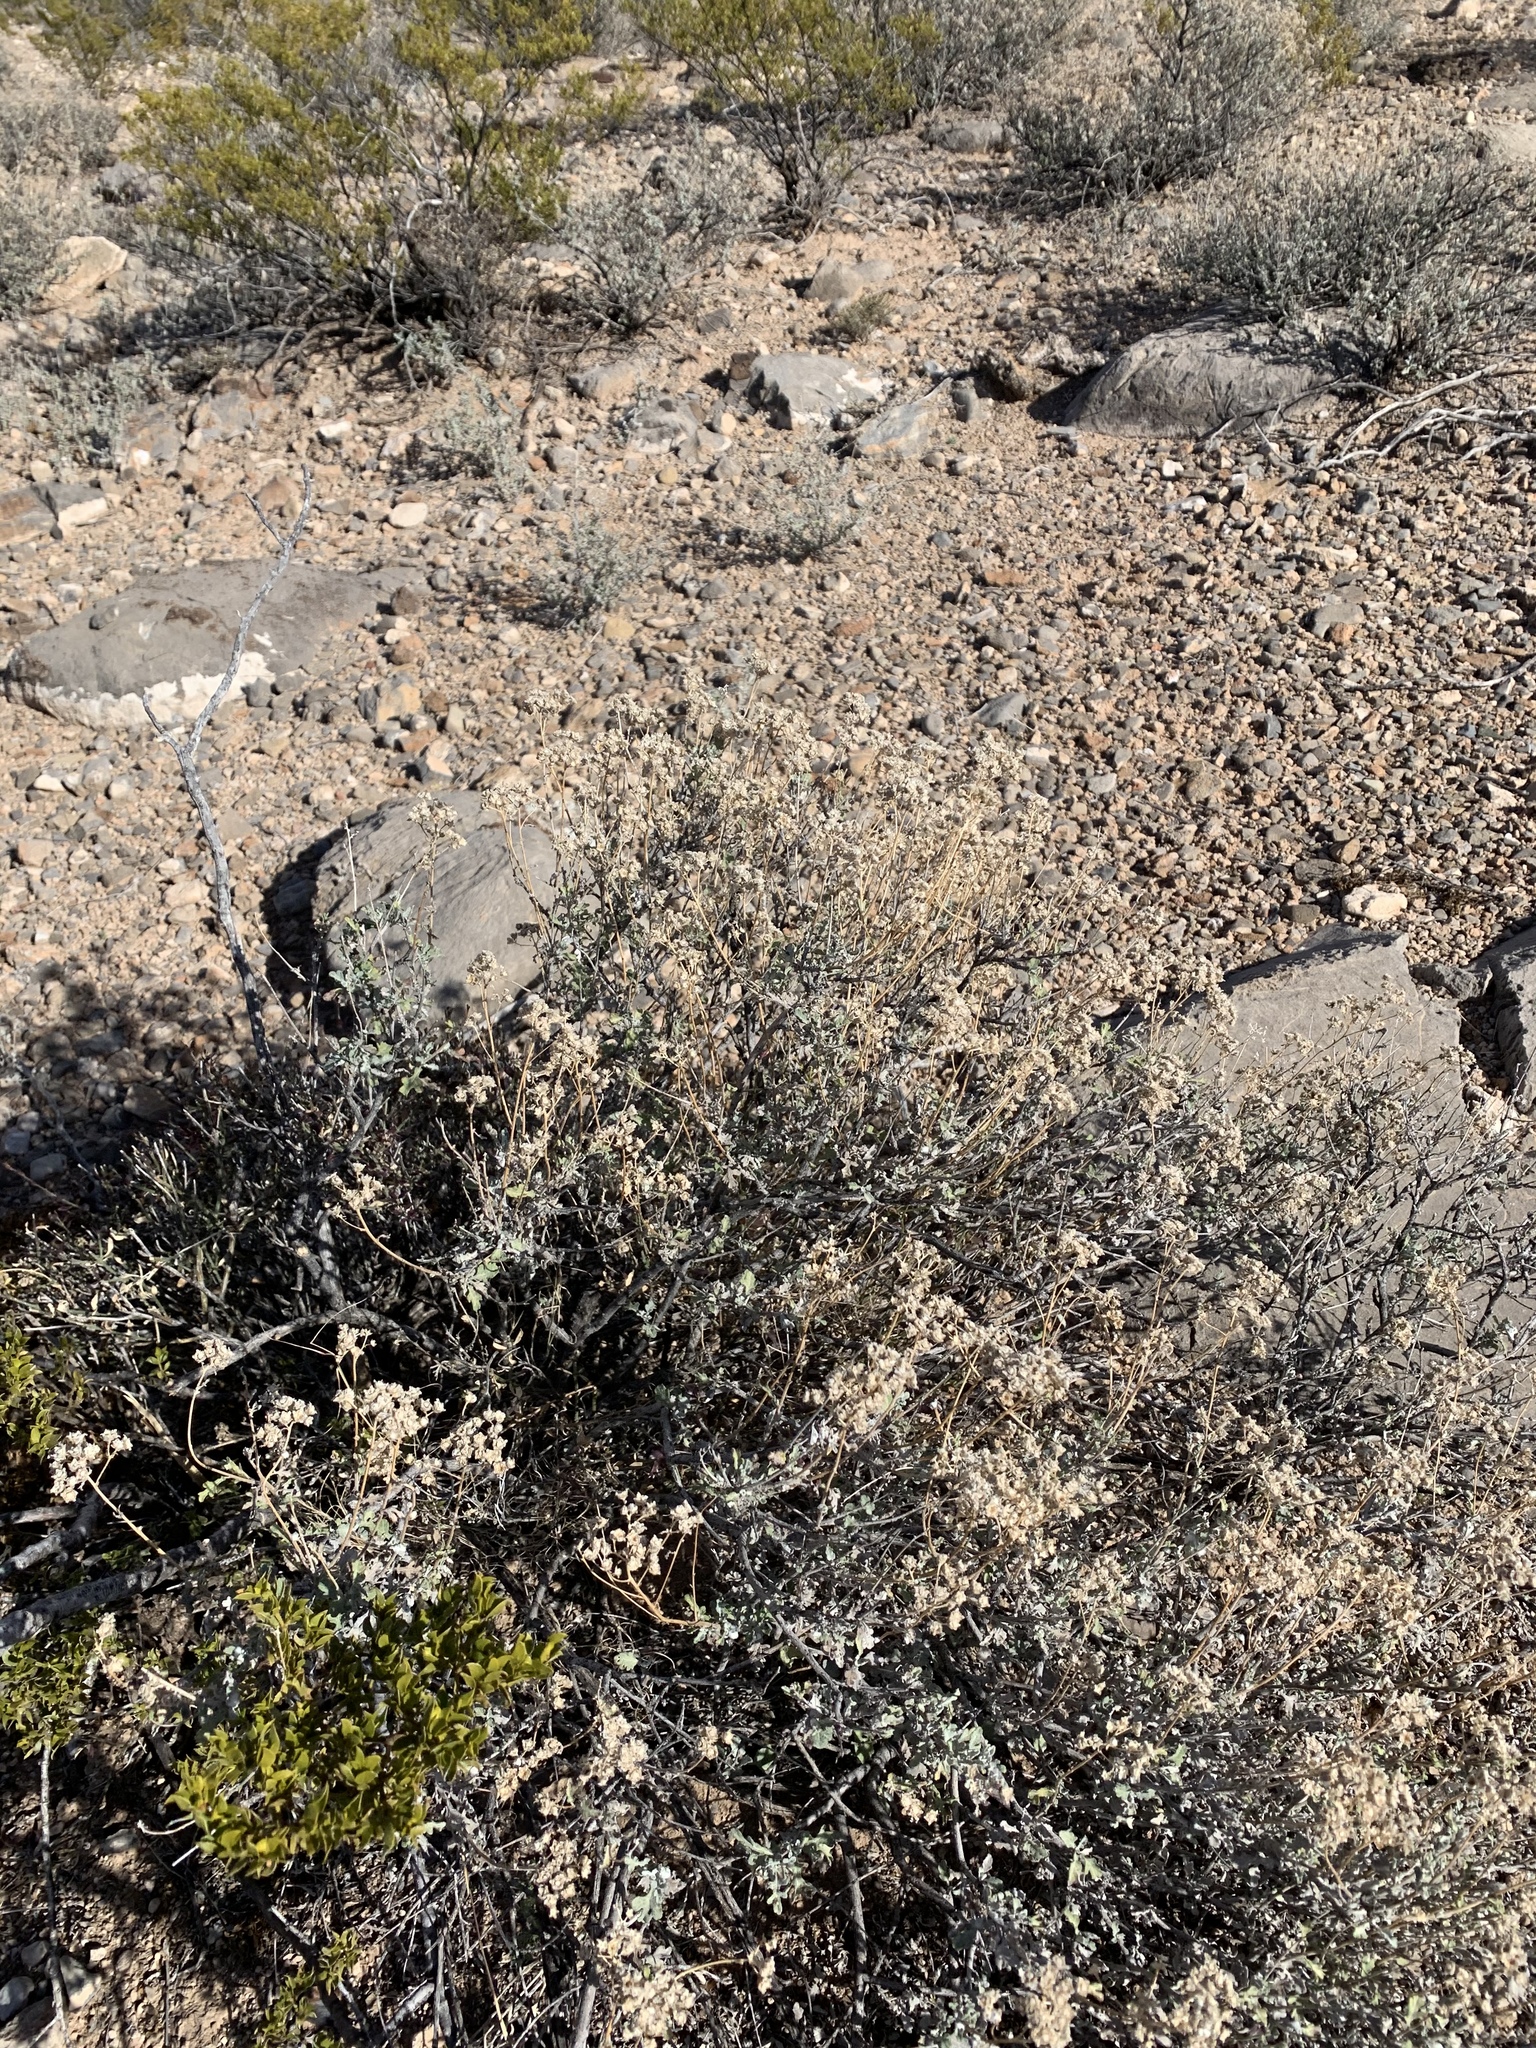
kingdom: Plantae
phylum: Tracheophyta
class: Magnoliopsida
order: Asterales
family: Asteraceae
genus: Parthenium
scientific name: Parthenium incanum
